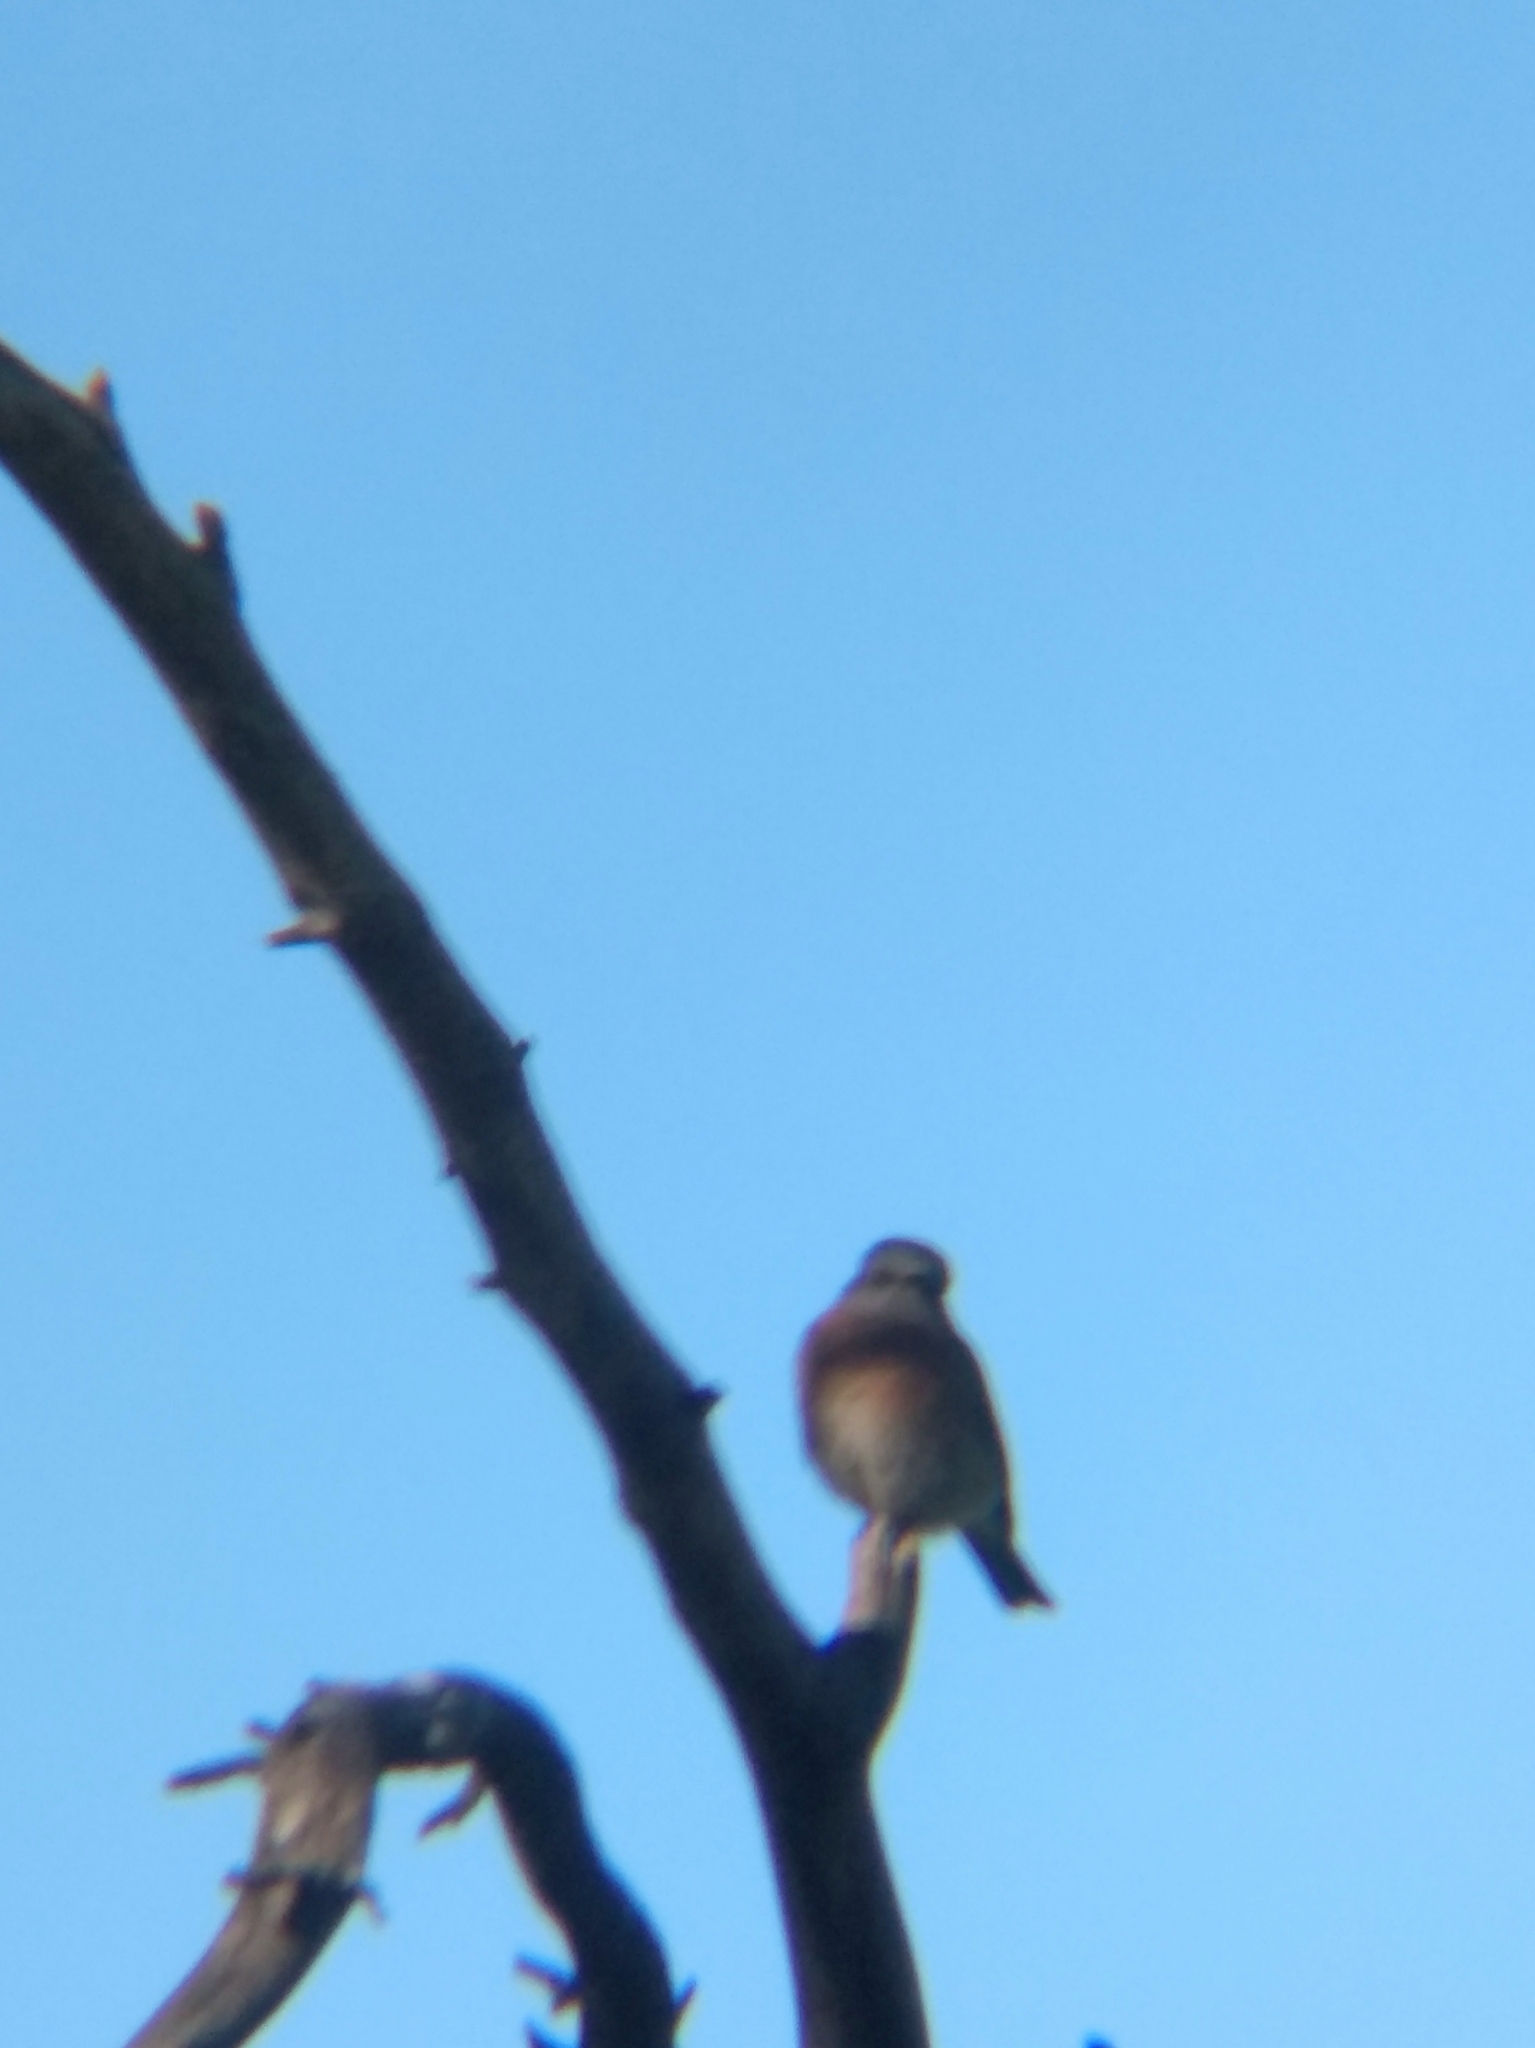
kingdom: Animalia
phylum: Chordata
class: Aves
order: Passeriformes
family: Turdidae
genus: Sialia
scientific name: Sialia mexicana
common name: Western bluebird
